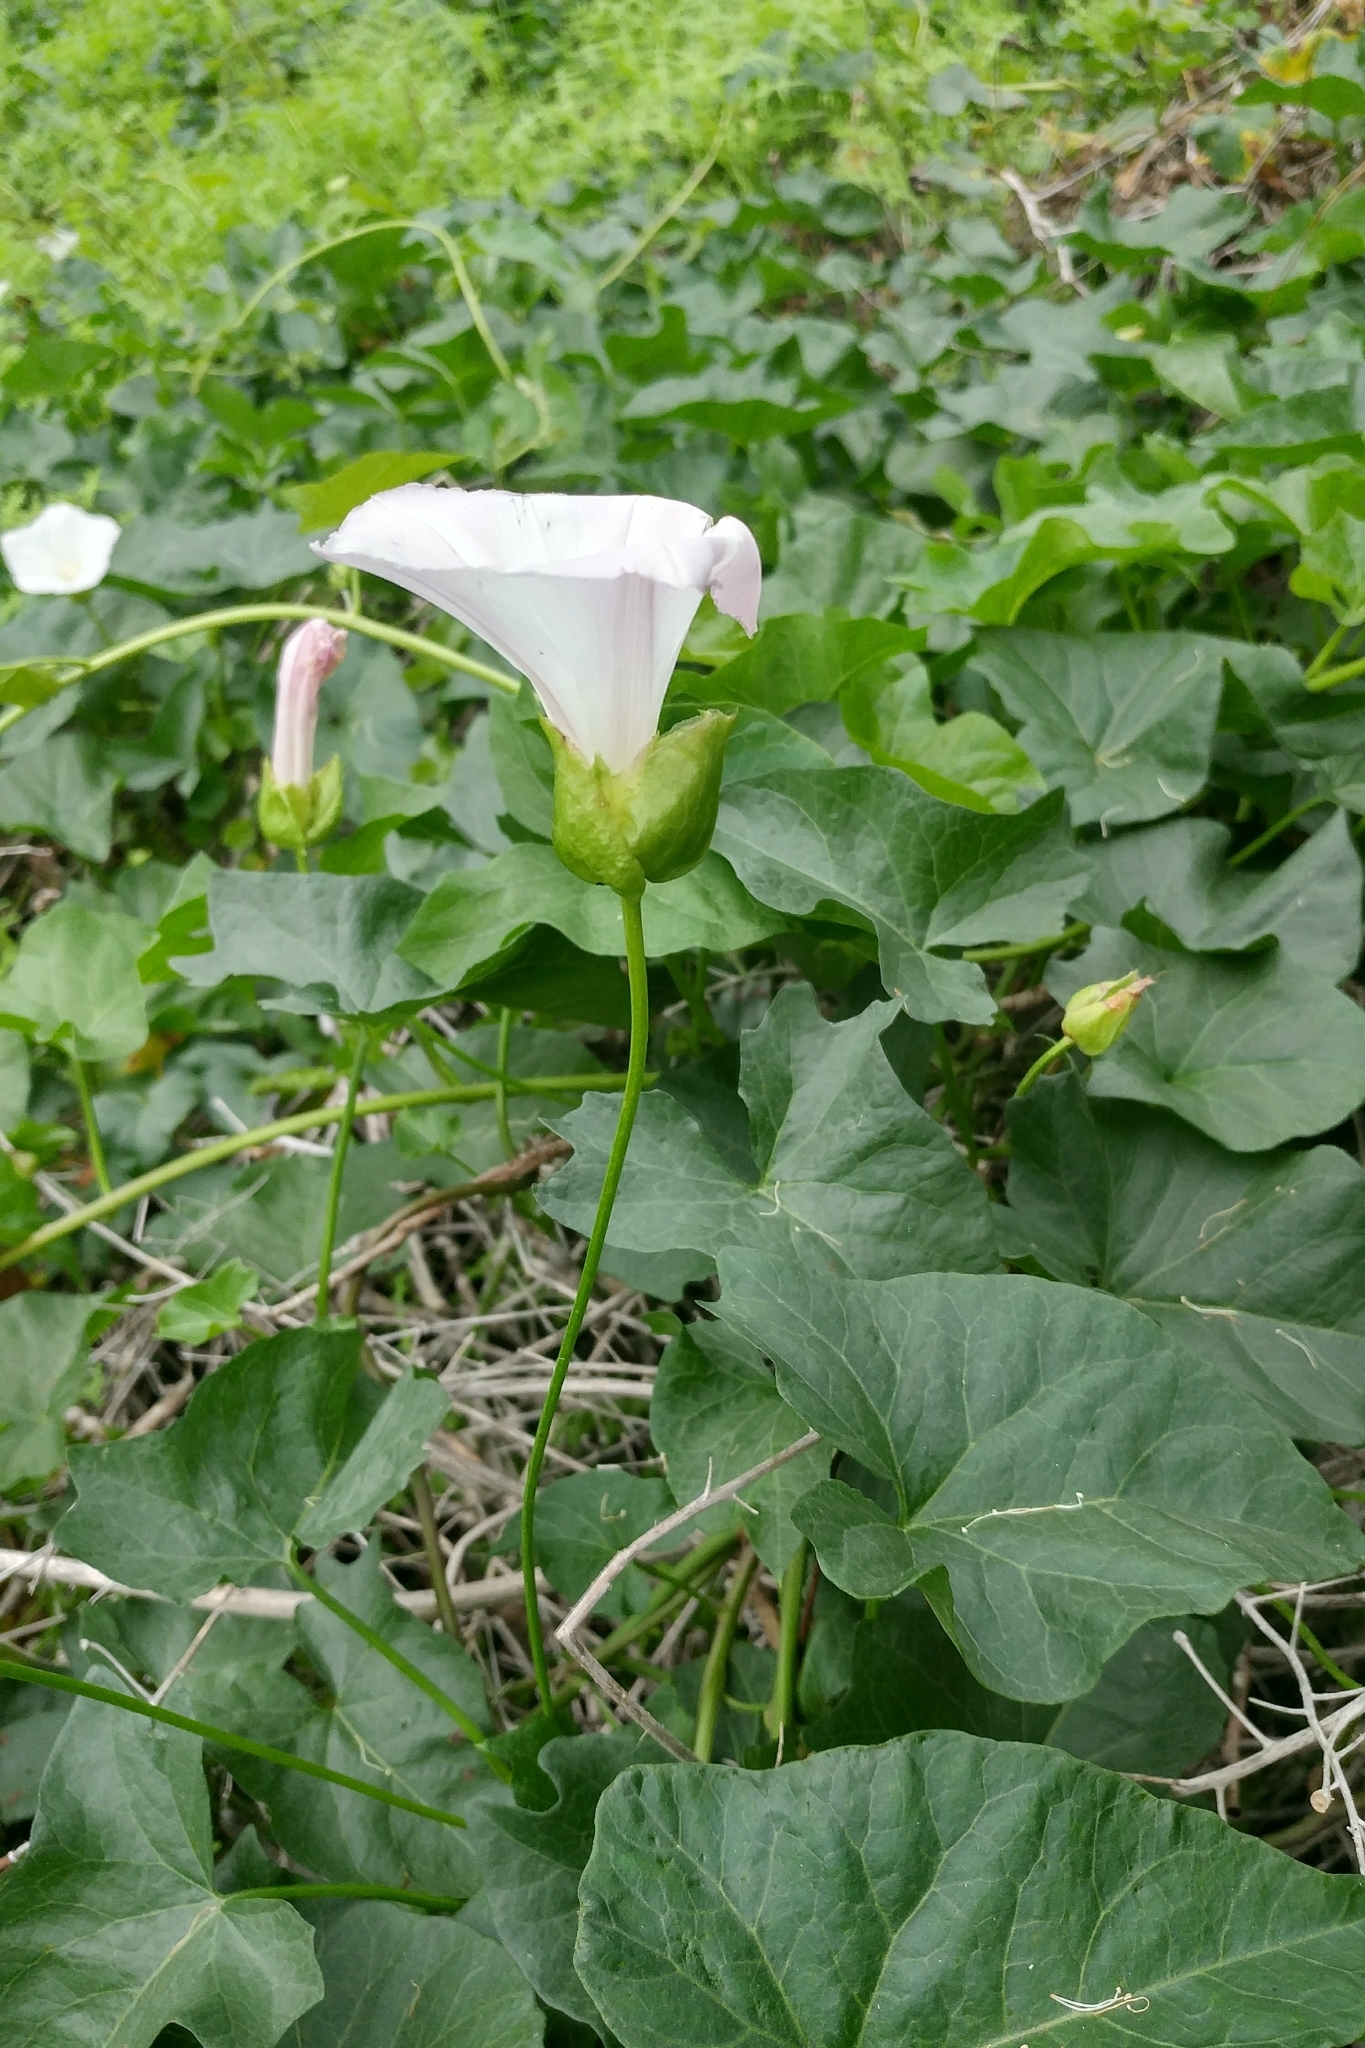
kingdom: Plantae
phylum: Tracheophyta
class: Magnoliopsida
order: Solanales
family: Convolvulaceae
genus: Calystegia
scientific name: Calystegia macrostegia
